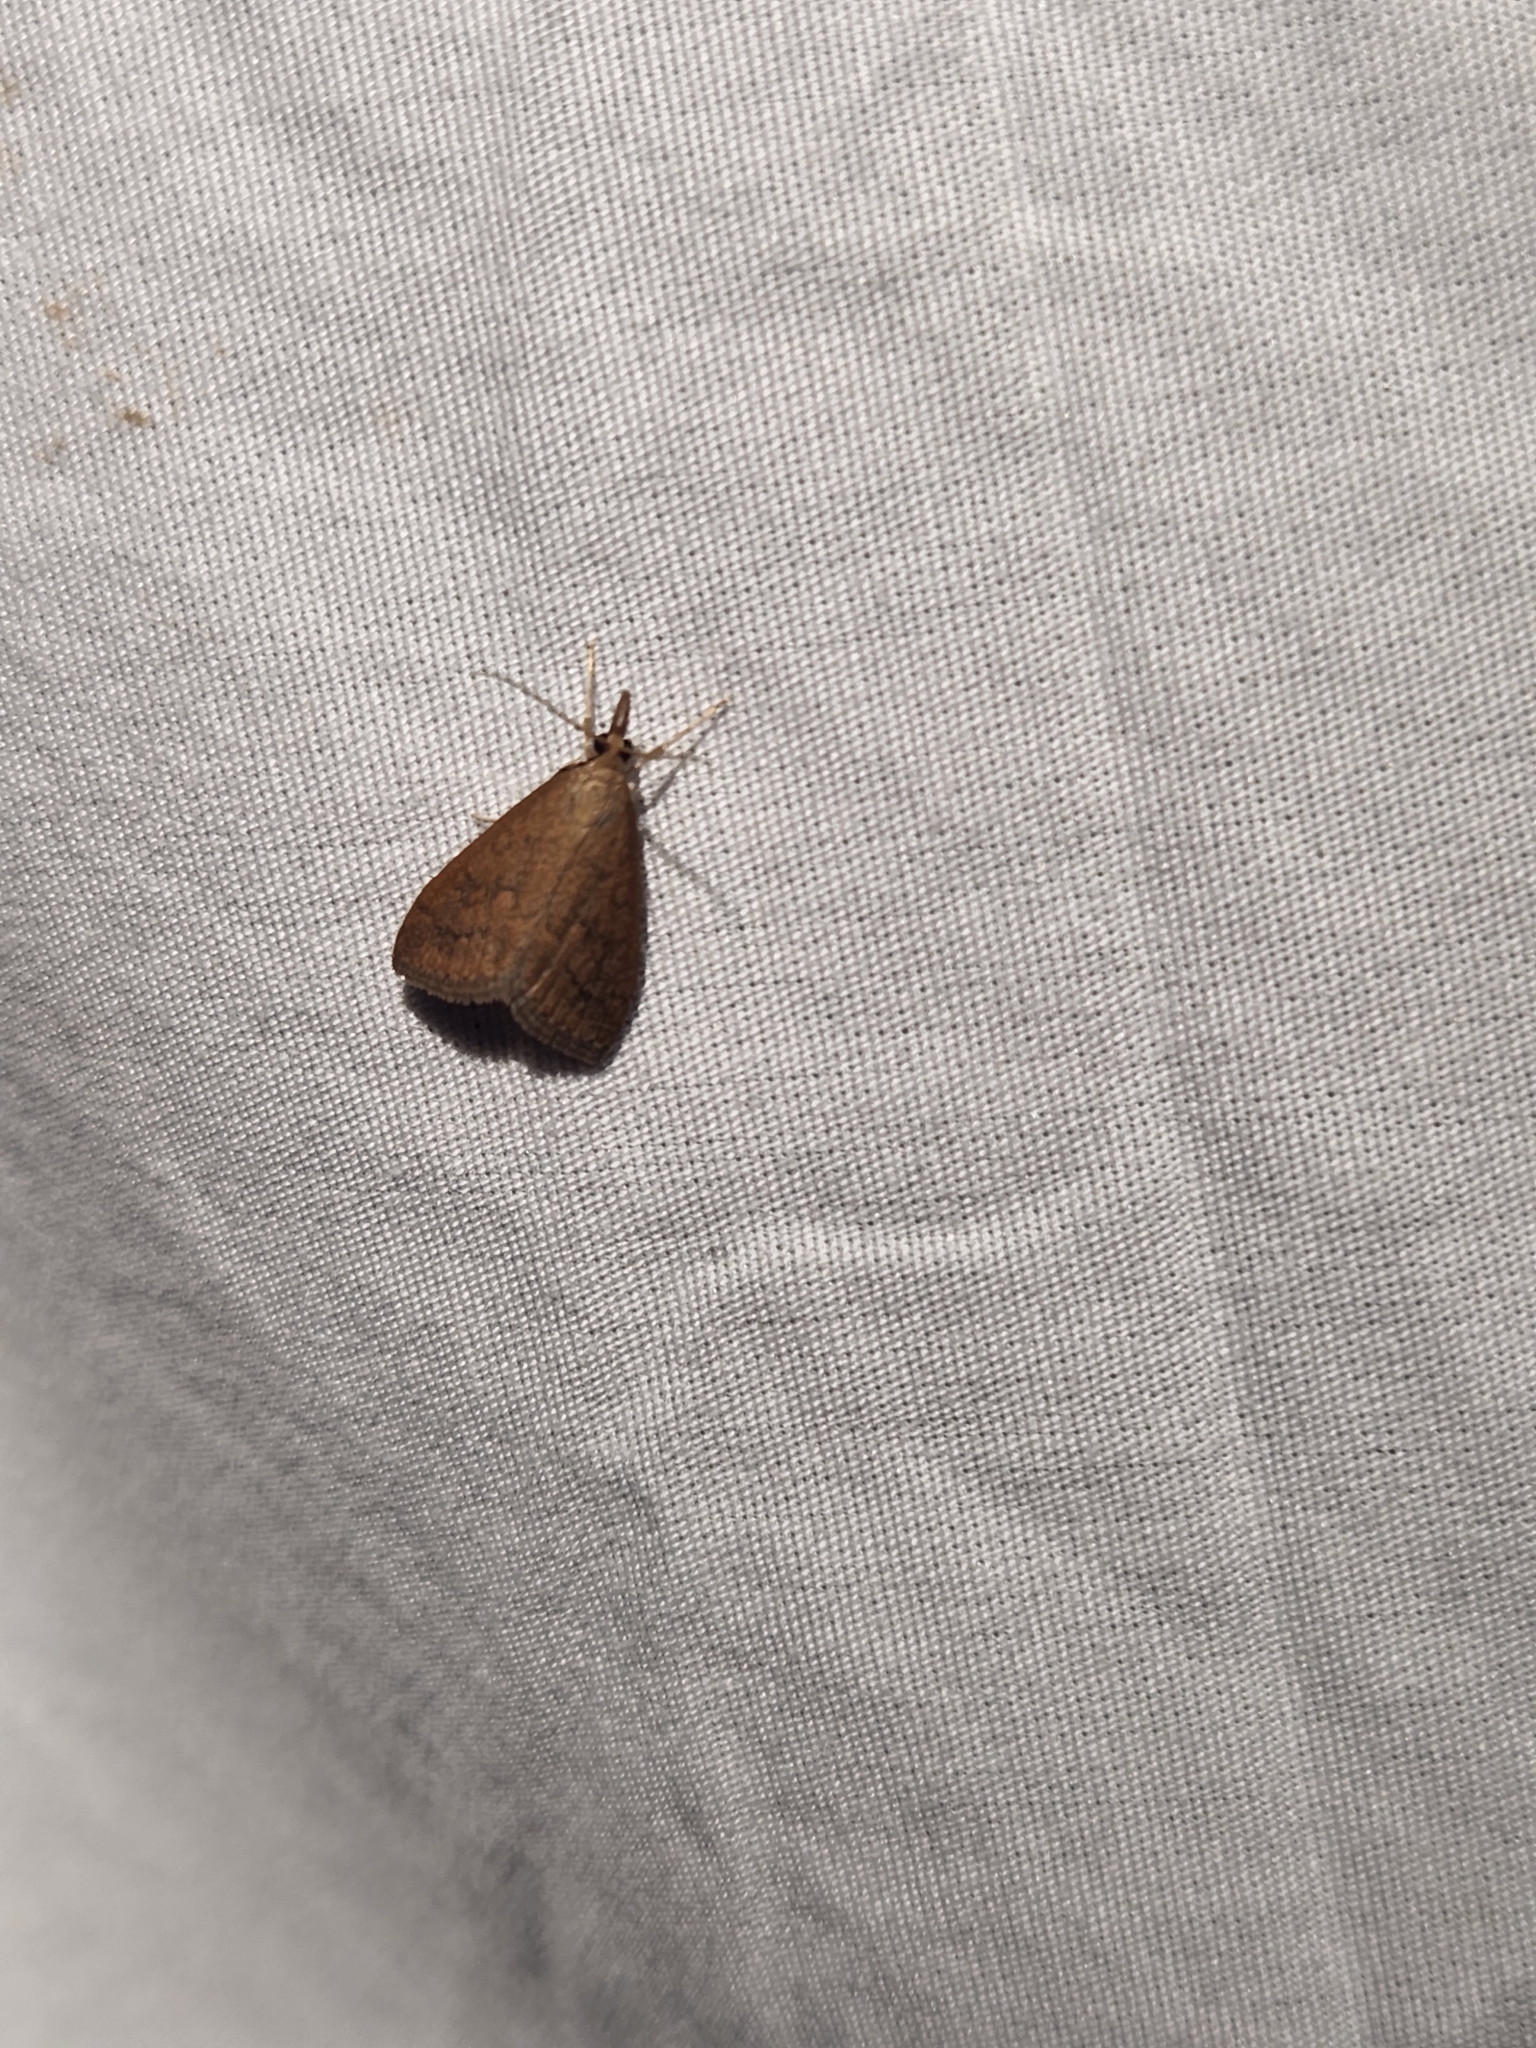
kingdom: Animalia
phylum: Arthropoda
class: Insecta
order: Lepidoptera
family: Crambidae
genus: Udea
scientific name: Udea rubigalis
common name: Celery leaftier moth
